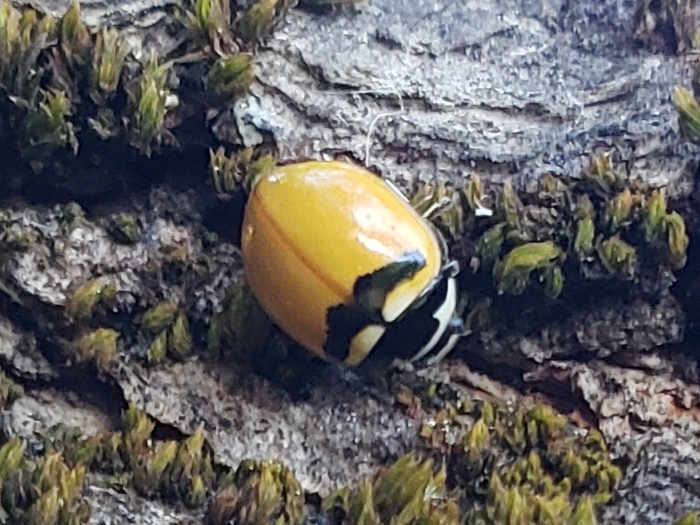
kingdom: Animalia
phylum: Arthropoda
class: Insecta
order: Coleoptera
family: Coccinellidae
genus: Coccinella
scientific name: Coccinella trifasciata
